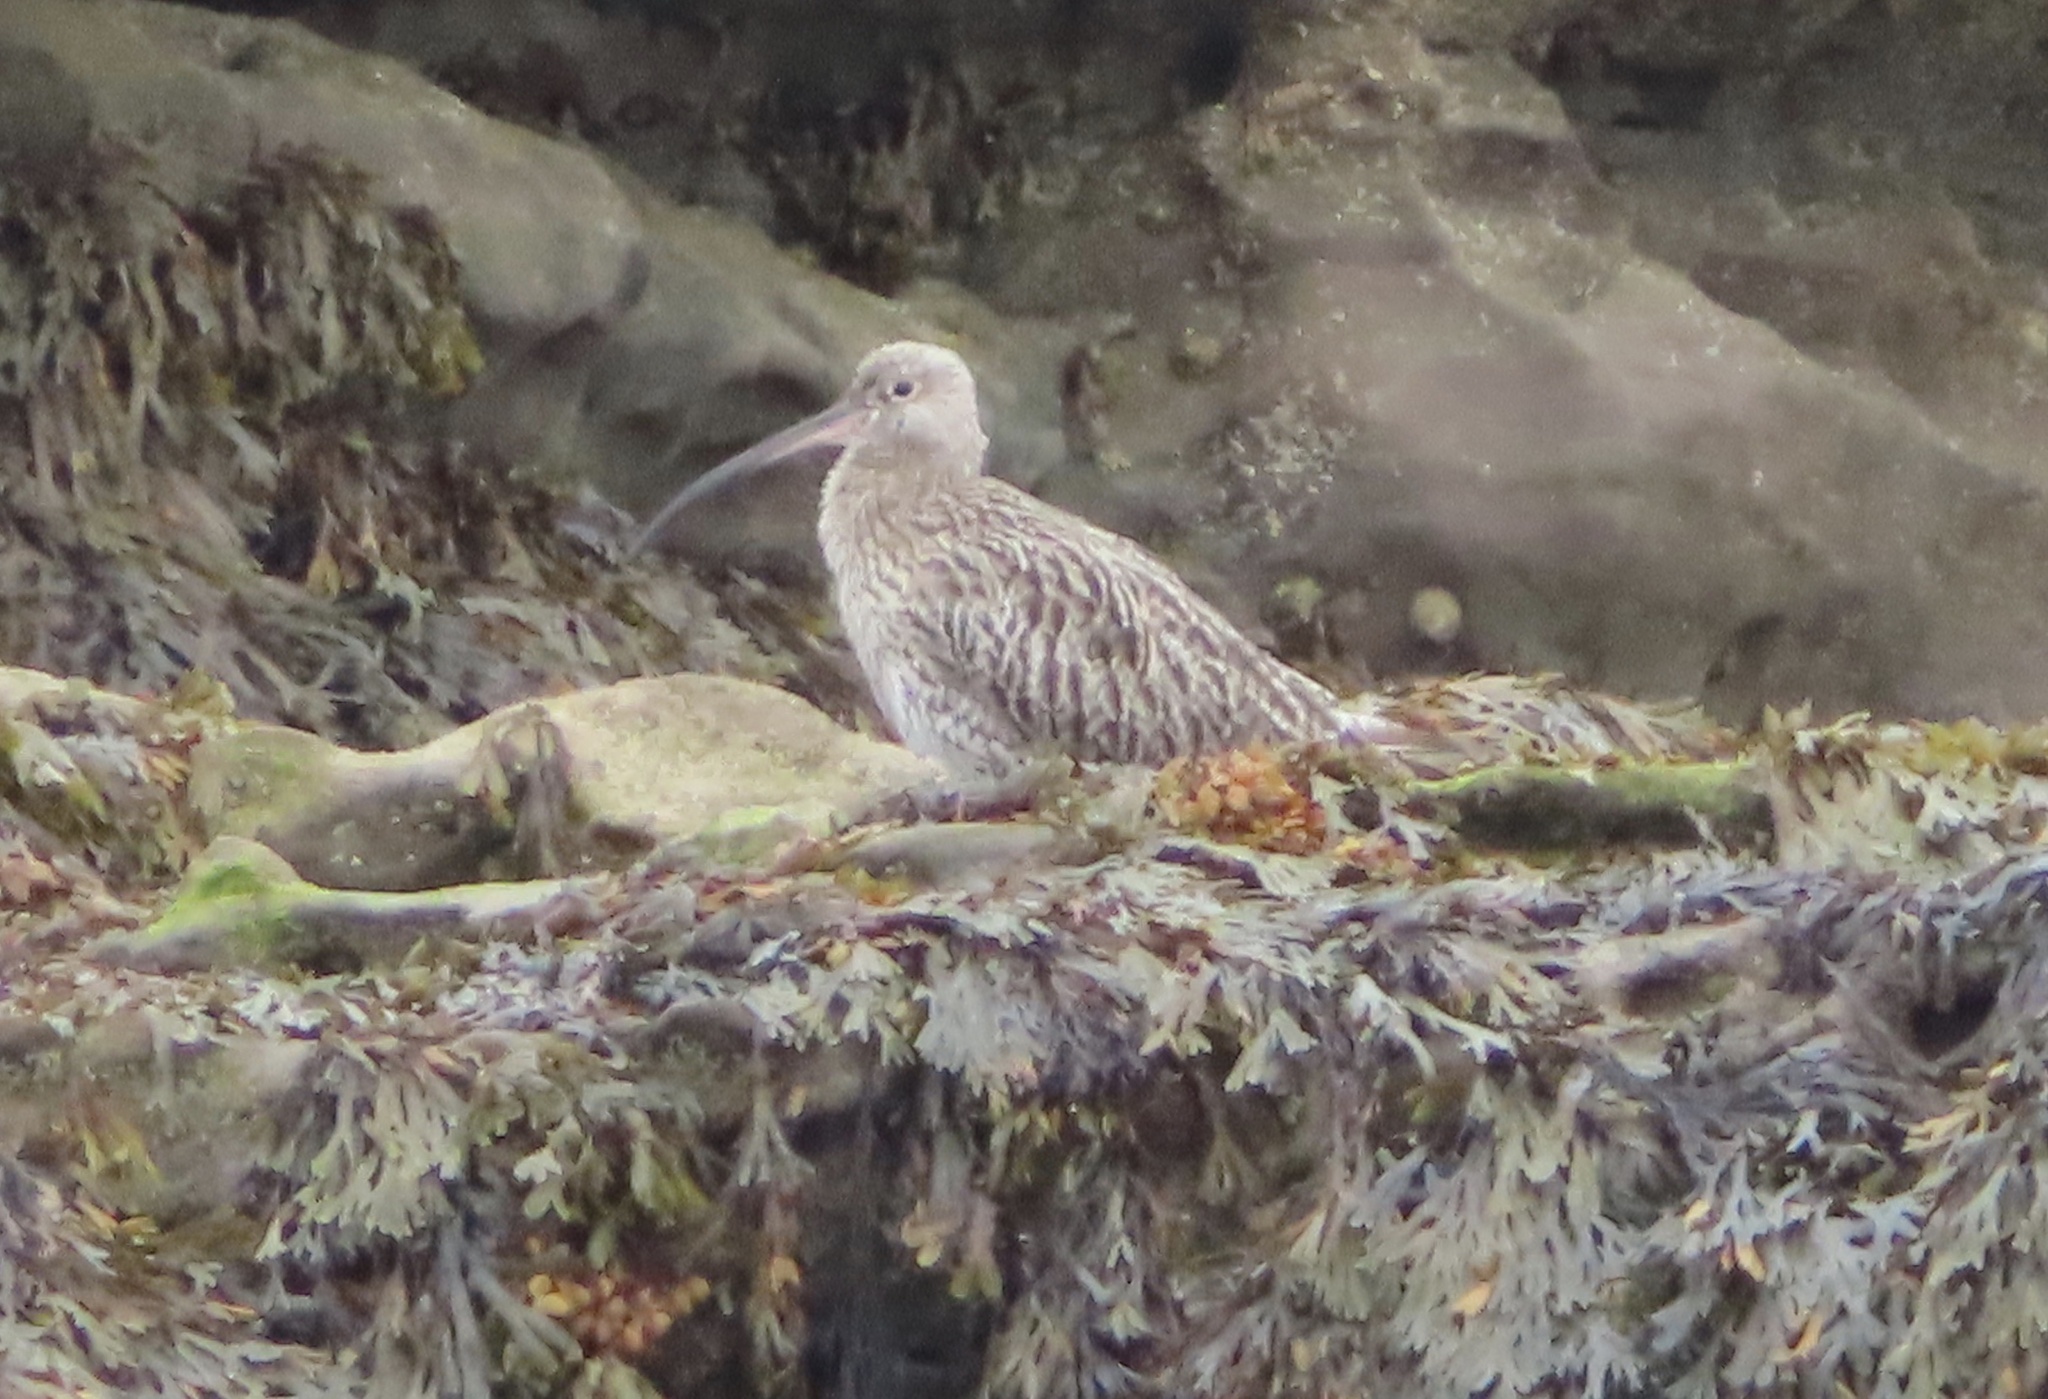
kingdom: Animalia
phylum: Chordata
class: Aves
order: Charadriiformes
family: Scolopacidae
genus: Numenius
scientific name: Numenius arquata
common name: Eurasian curlew
